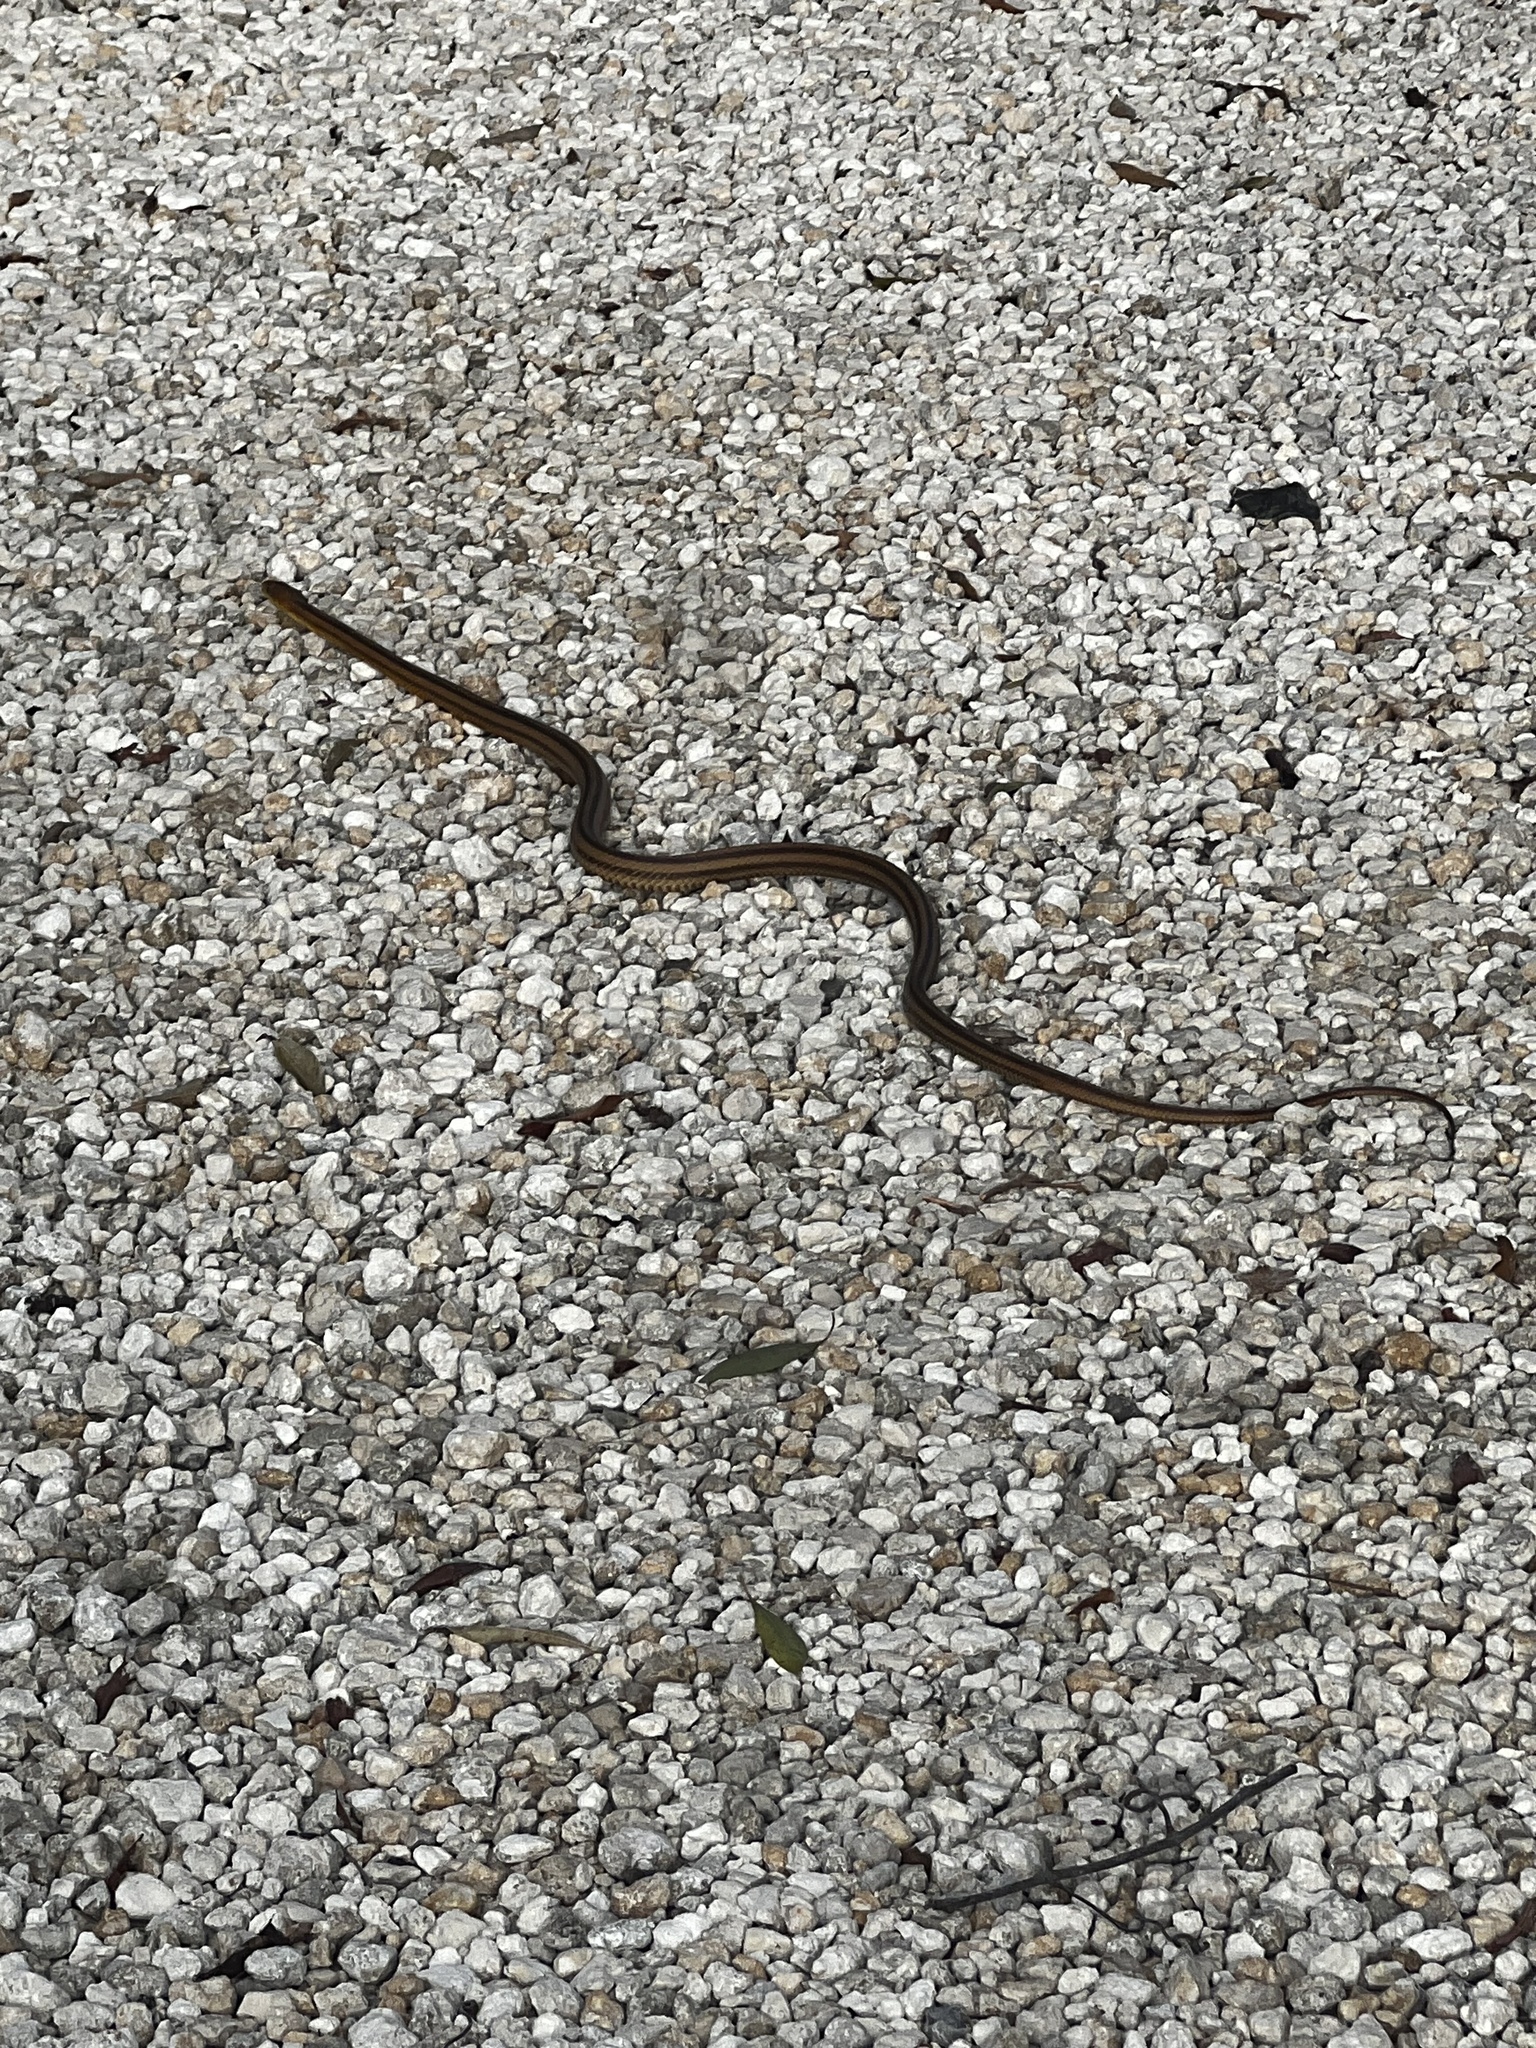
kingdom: Animalia
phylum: Chordata
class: Squamata
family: Colubridae
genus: Pantherophis
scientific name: Pantherophis alleghaniensis
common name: Eastern rat snake
